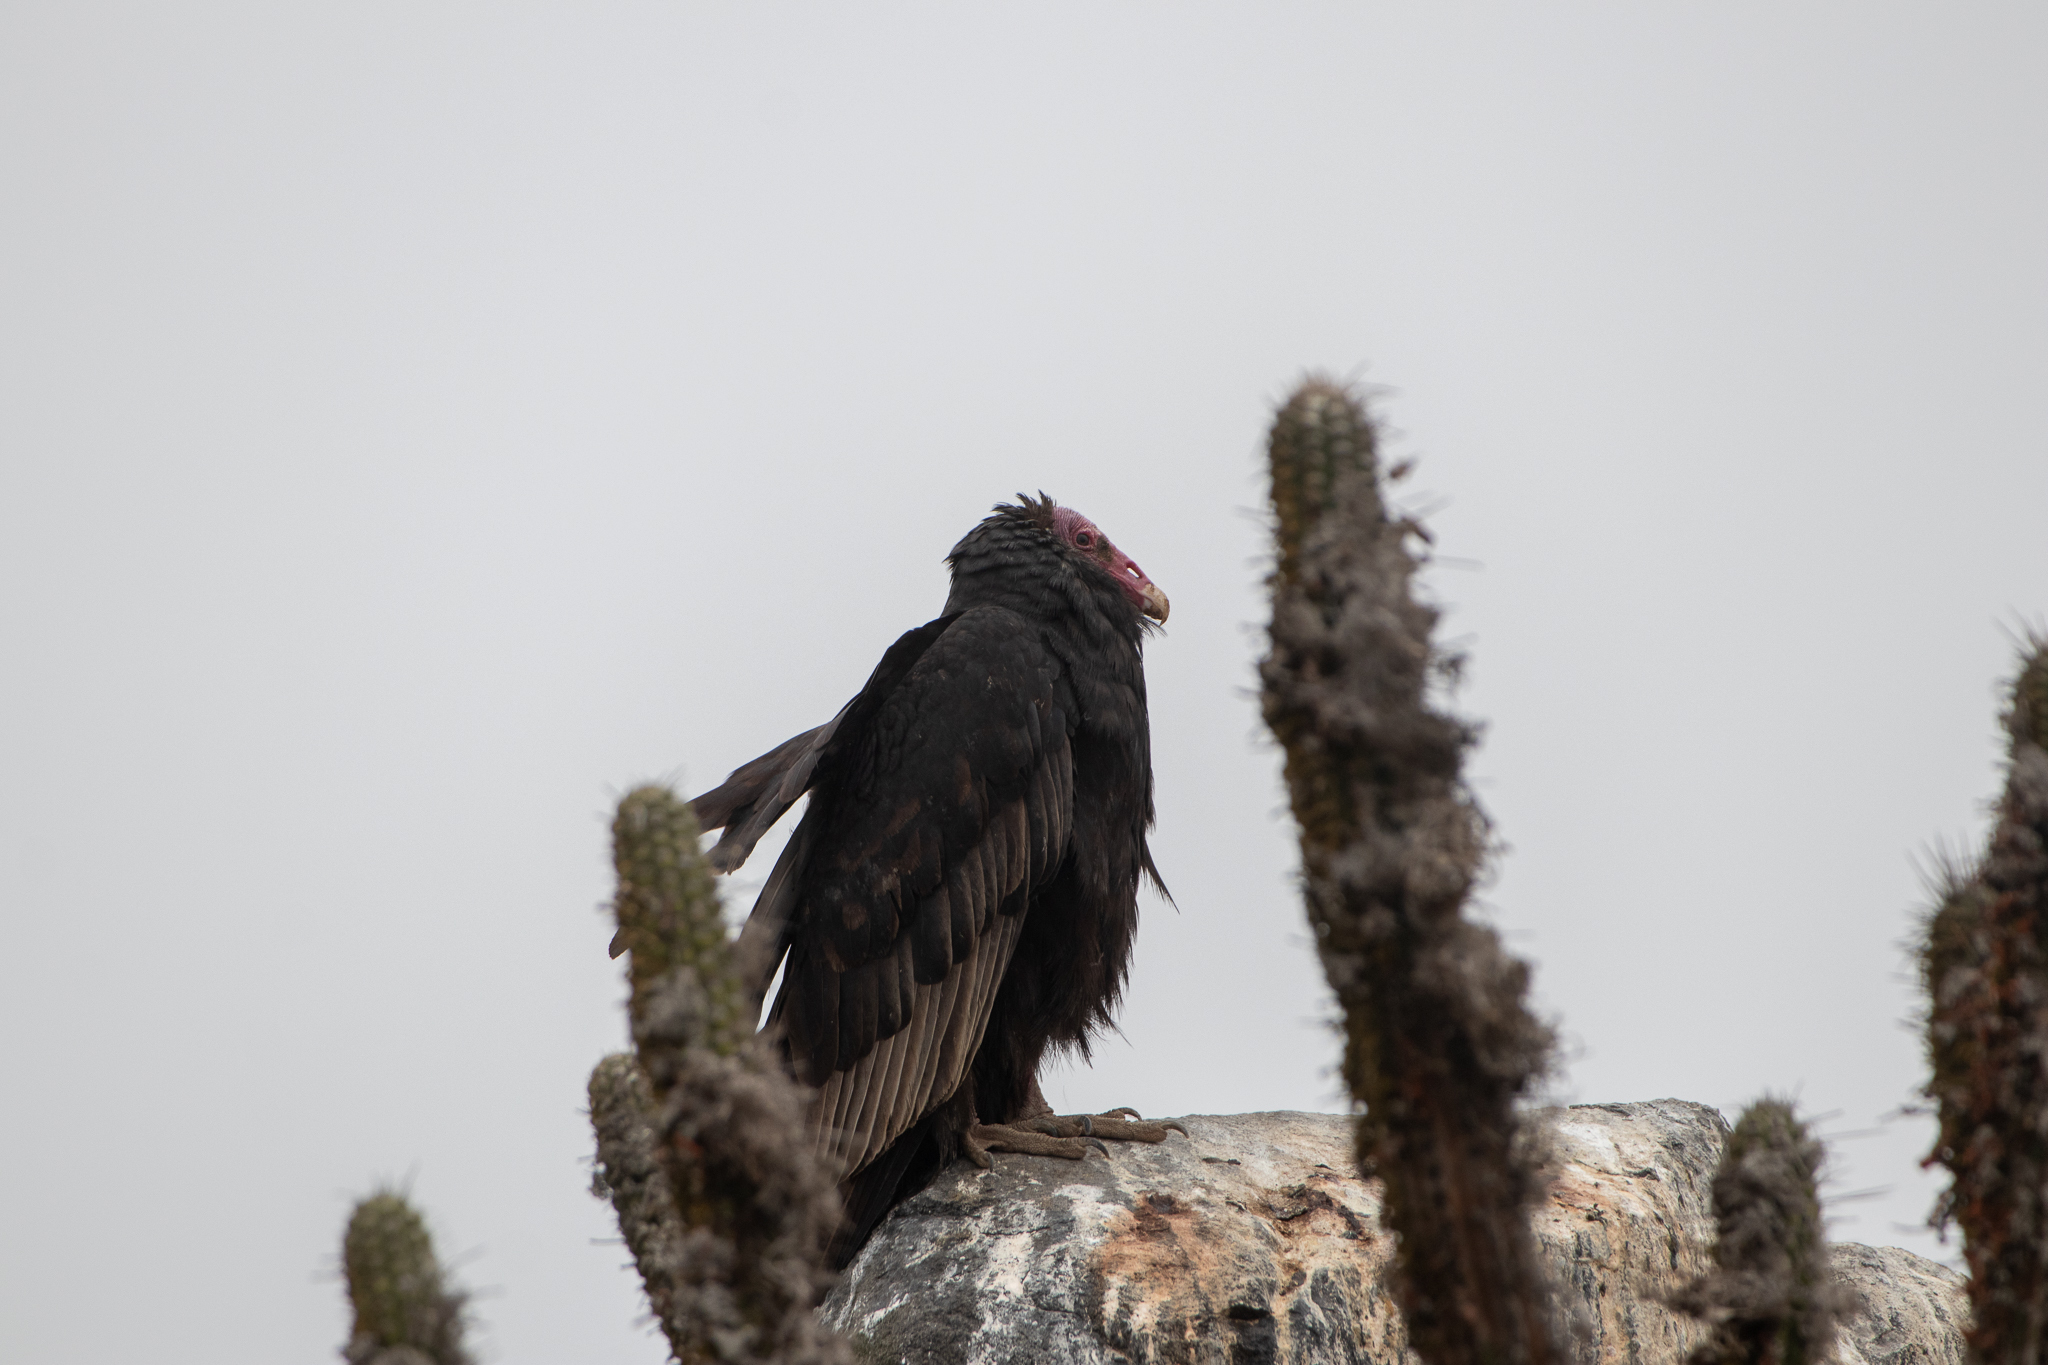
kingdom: Animalia
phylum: Chordata
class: Aves
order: Accipitriformes
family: Cathartidae
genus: Cathartes
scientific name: Cathartes aura
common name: Turkey vulture
